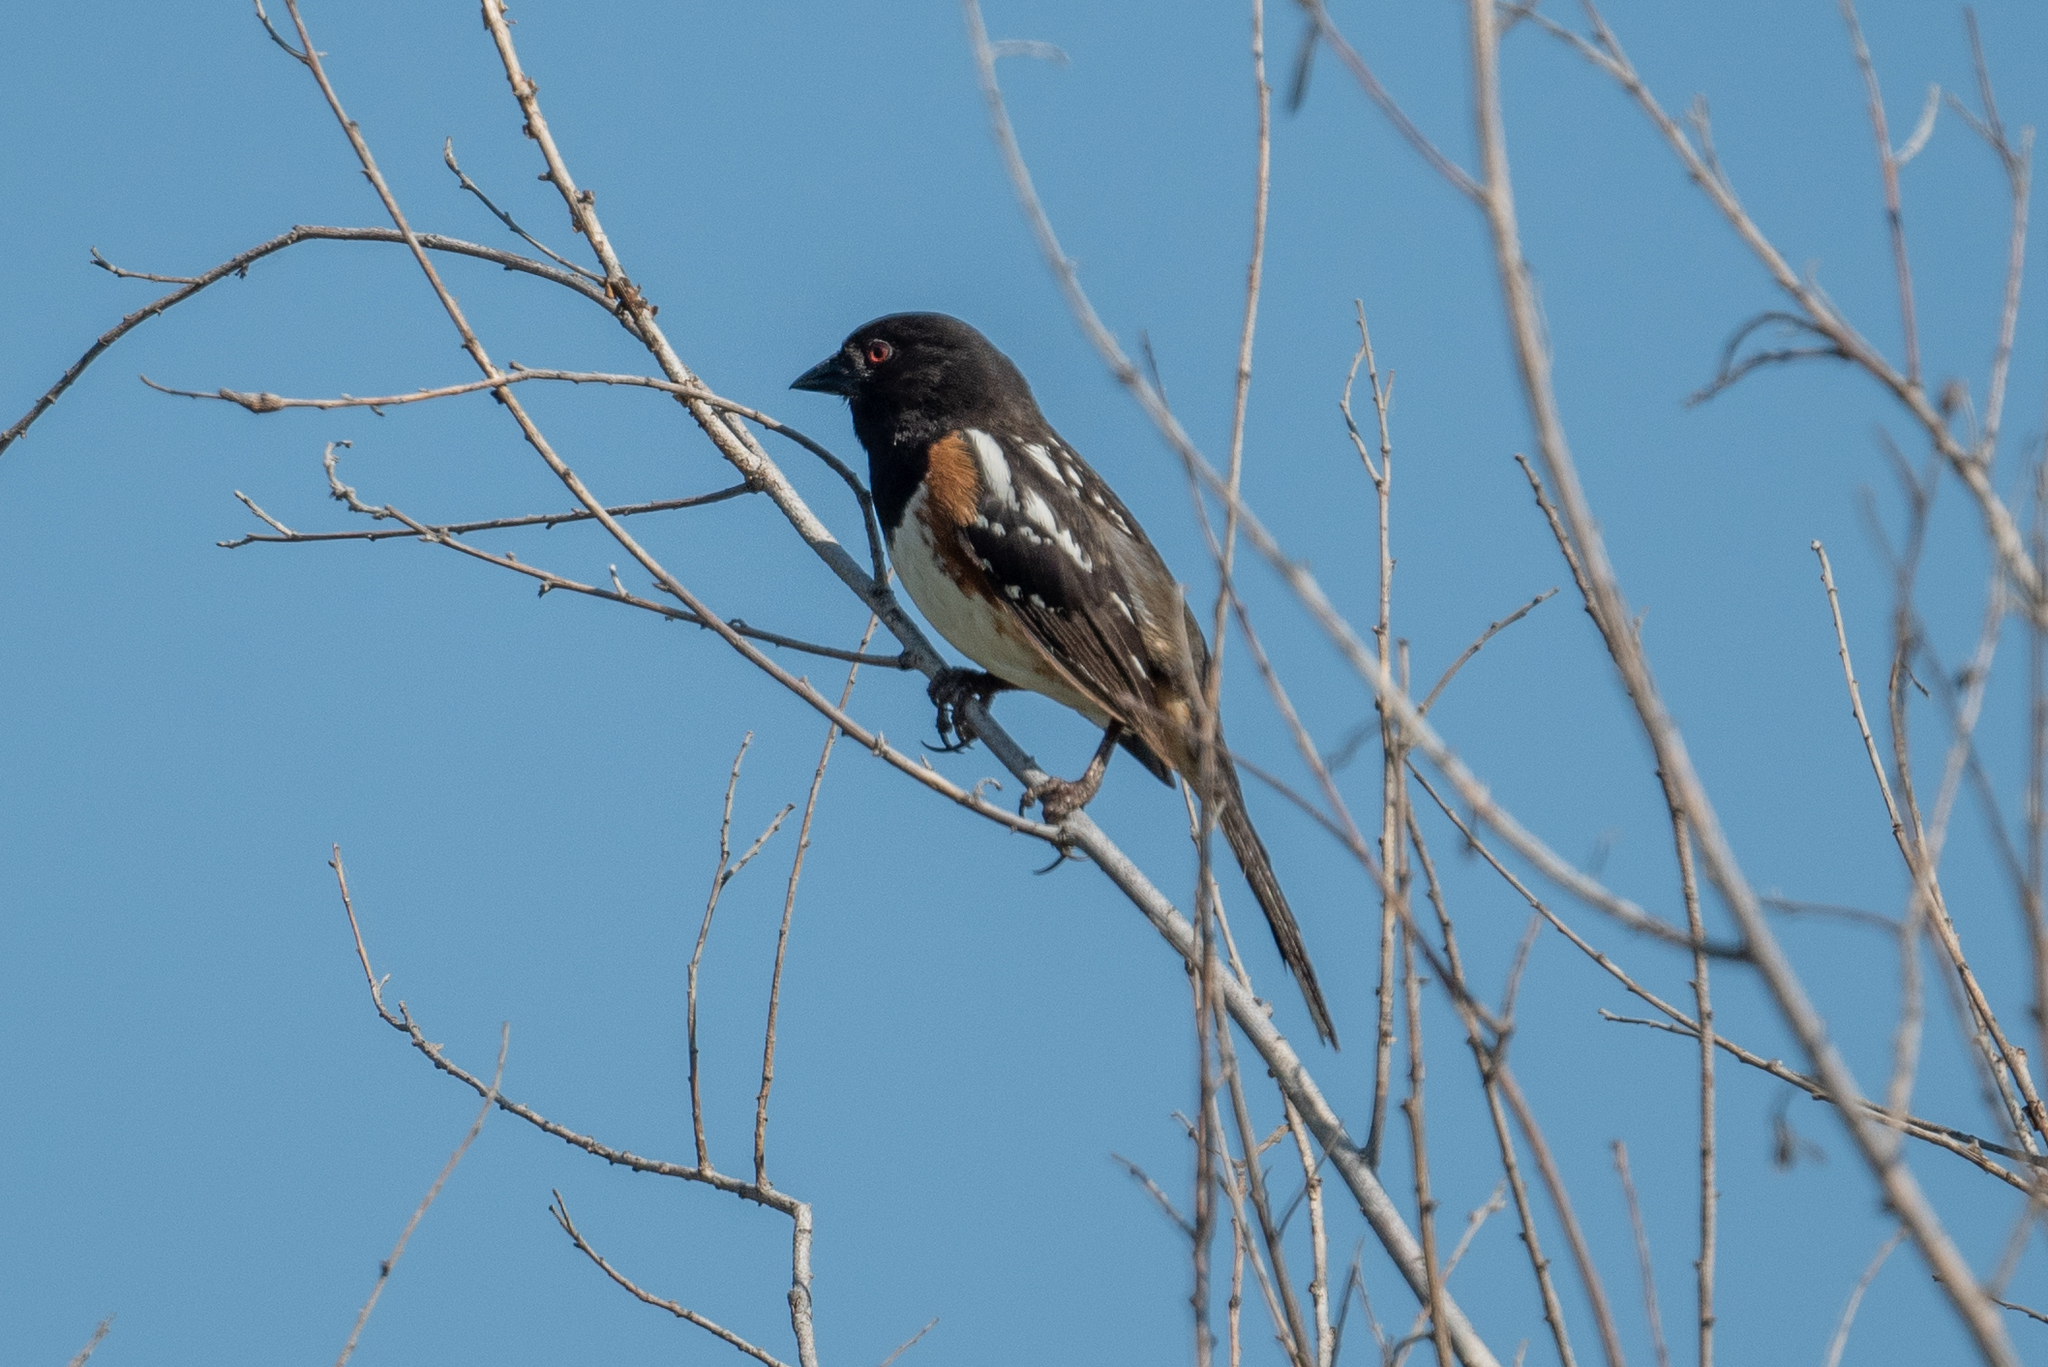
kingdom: Animalia
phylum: Chordata
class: Aves
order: Passeriformes
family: Passerellidae
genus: Pipilo
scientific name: Pipilo maculatus
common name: Spotted towhee
